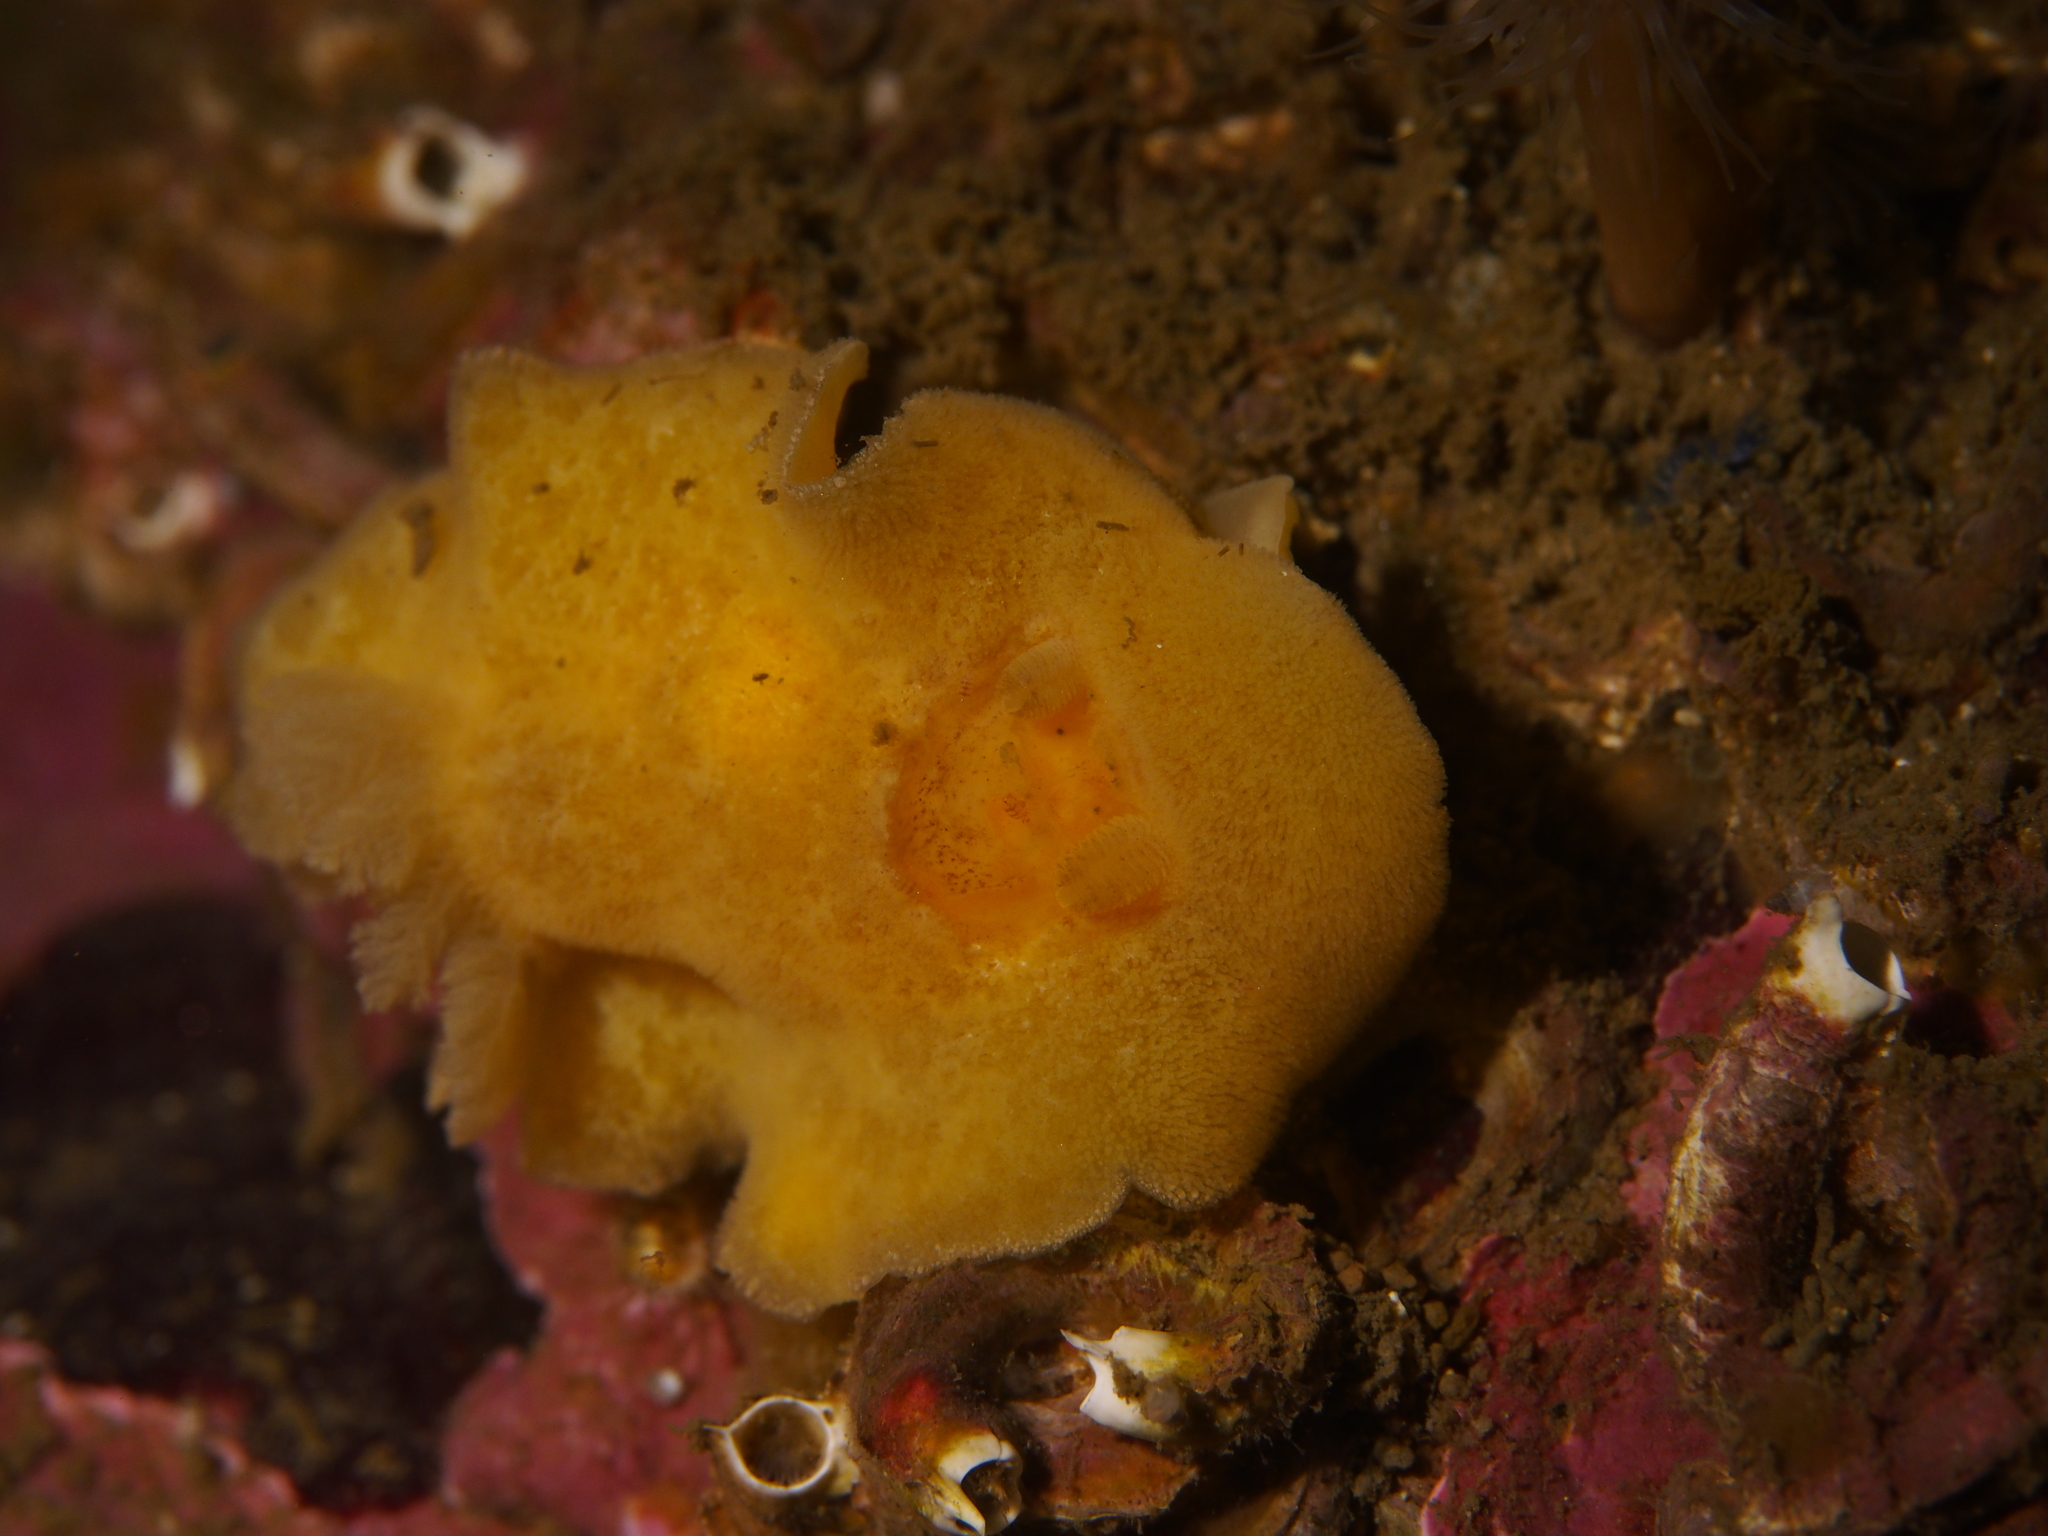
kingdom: Animalia
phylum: Mollusca
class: Gastropoda
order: Nudibranchia
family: Discodorididae
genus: Jorunna
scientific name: Jorunna tomentosa
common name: Grey sea slug
